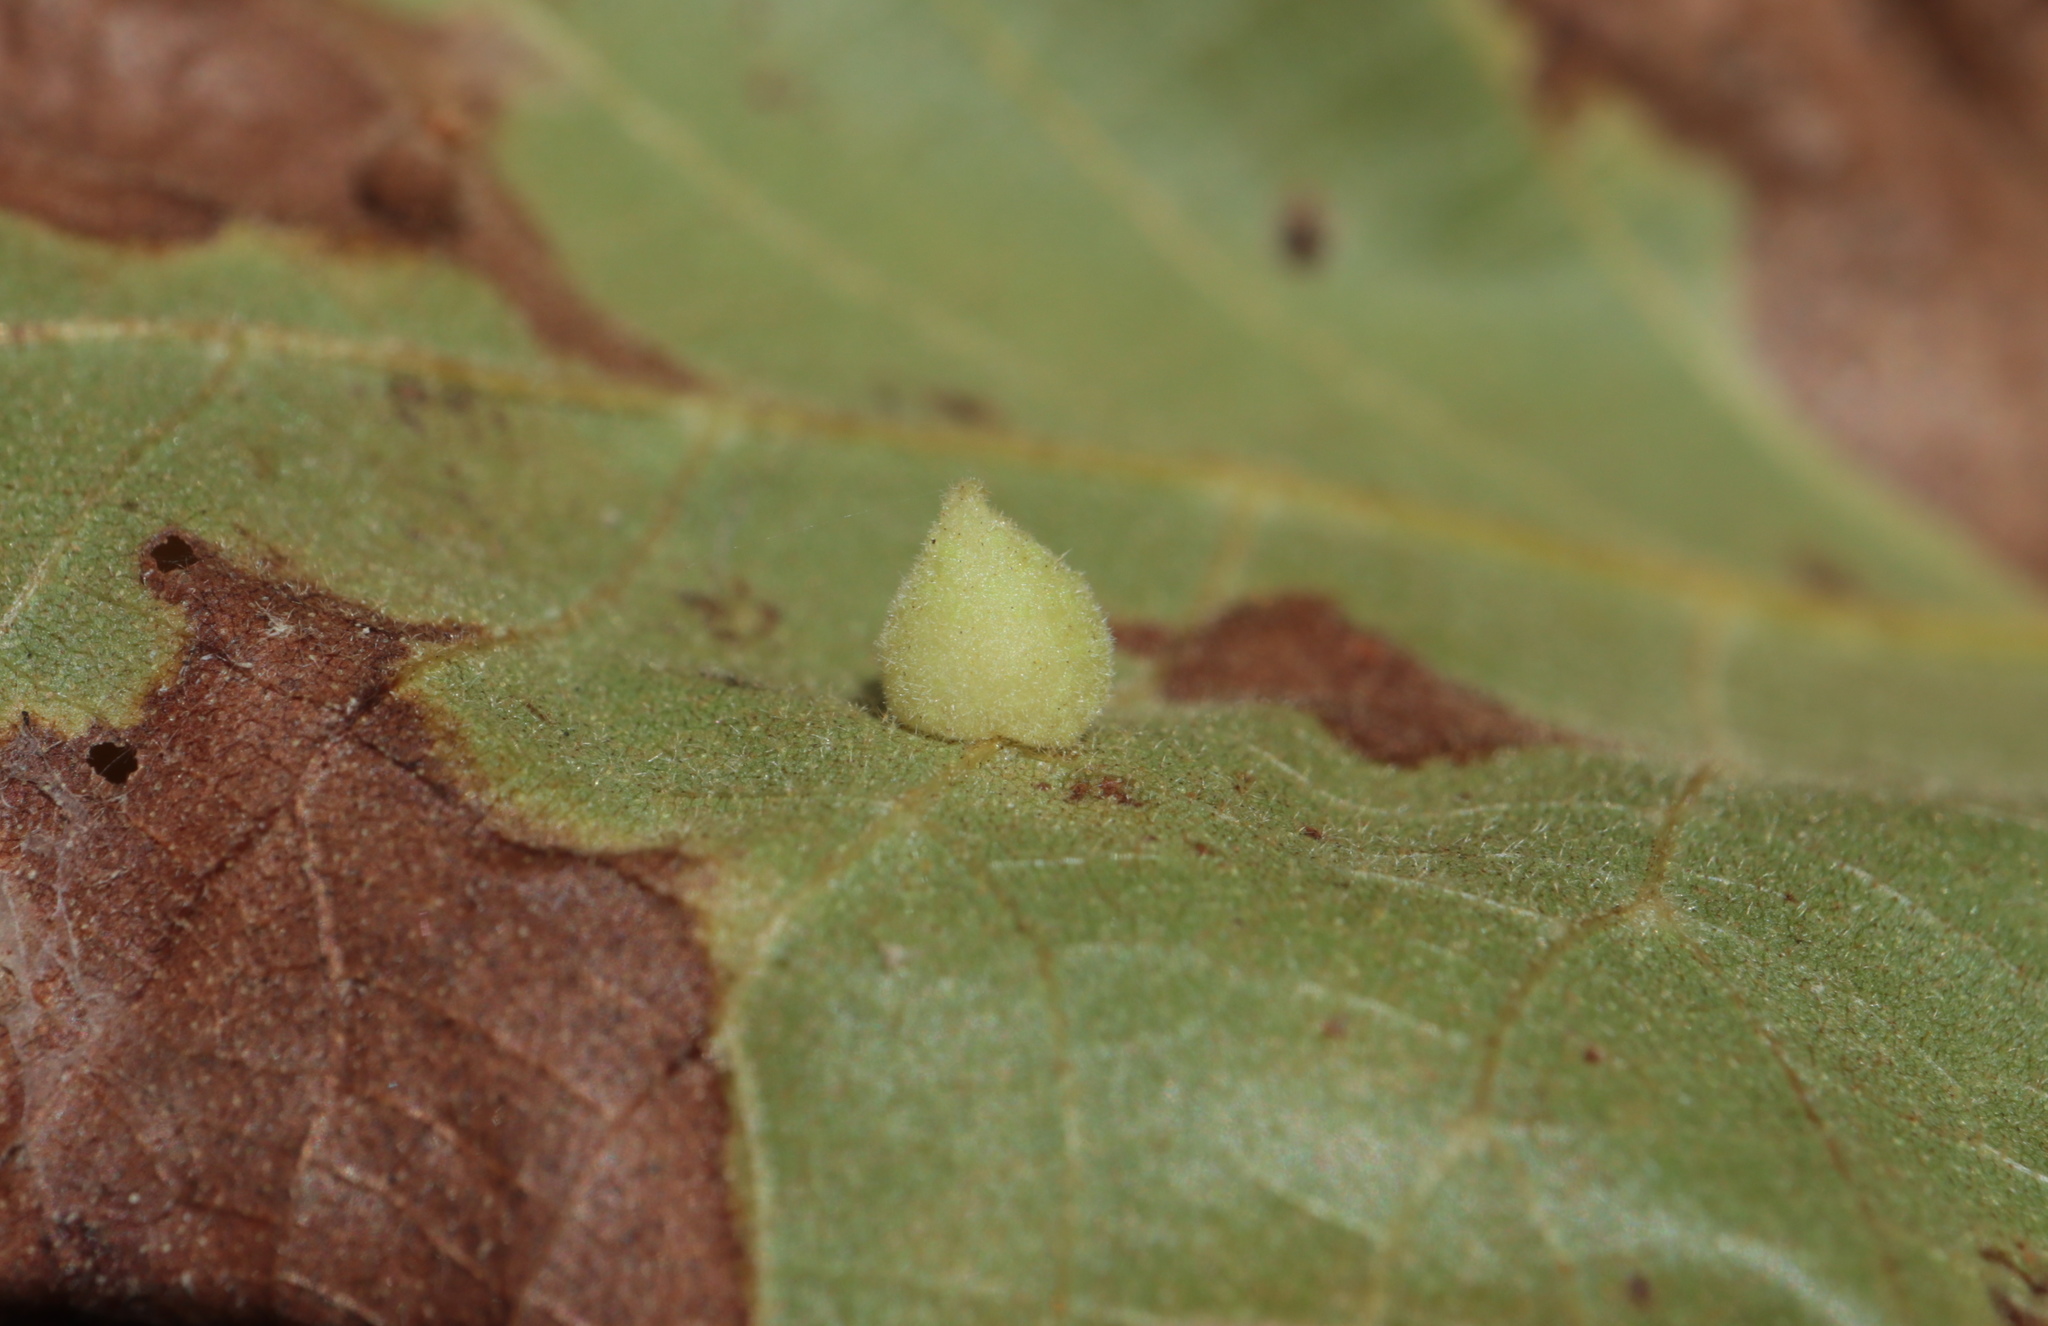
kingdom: Animalia
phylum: Arthropoda
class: Insecta
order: Diptera
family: Cecidomyiidae
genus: Caryomyia
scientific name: Caryomyia persicoides
